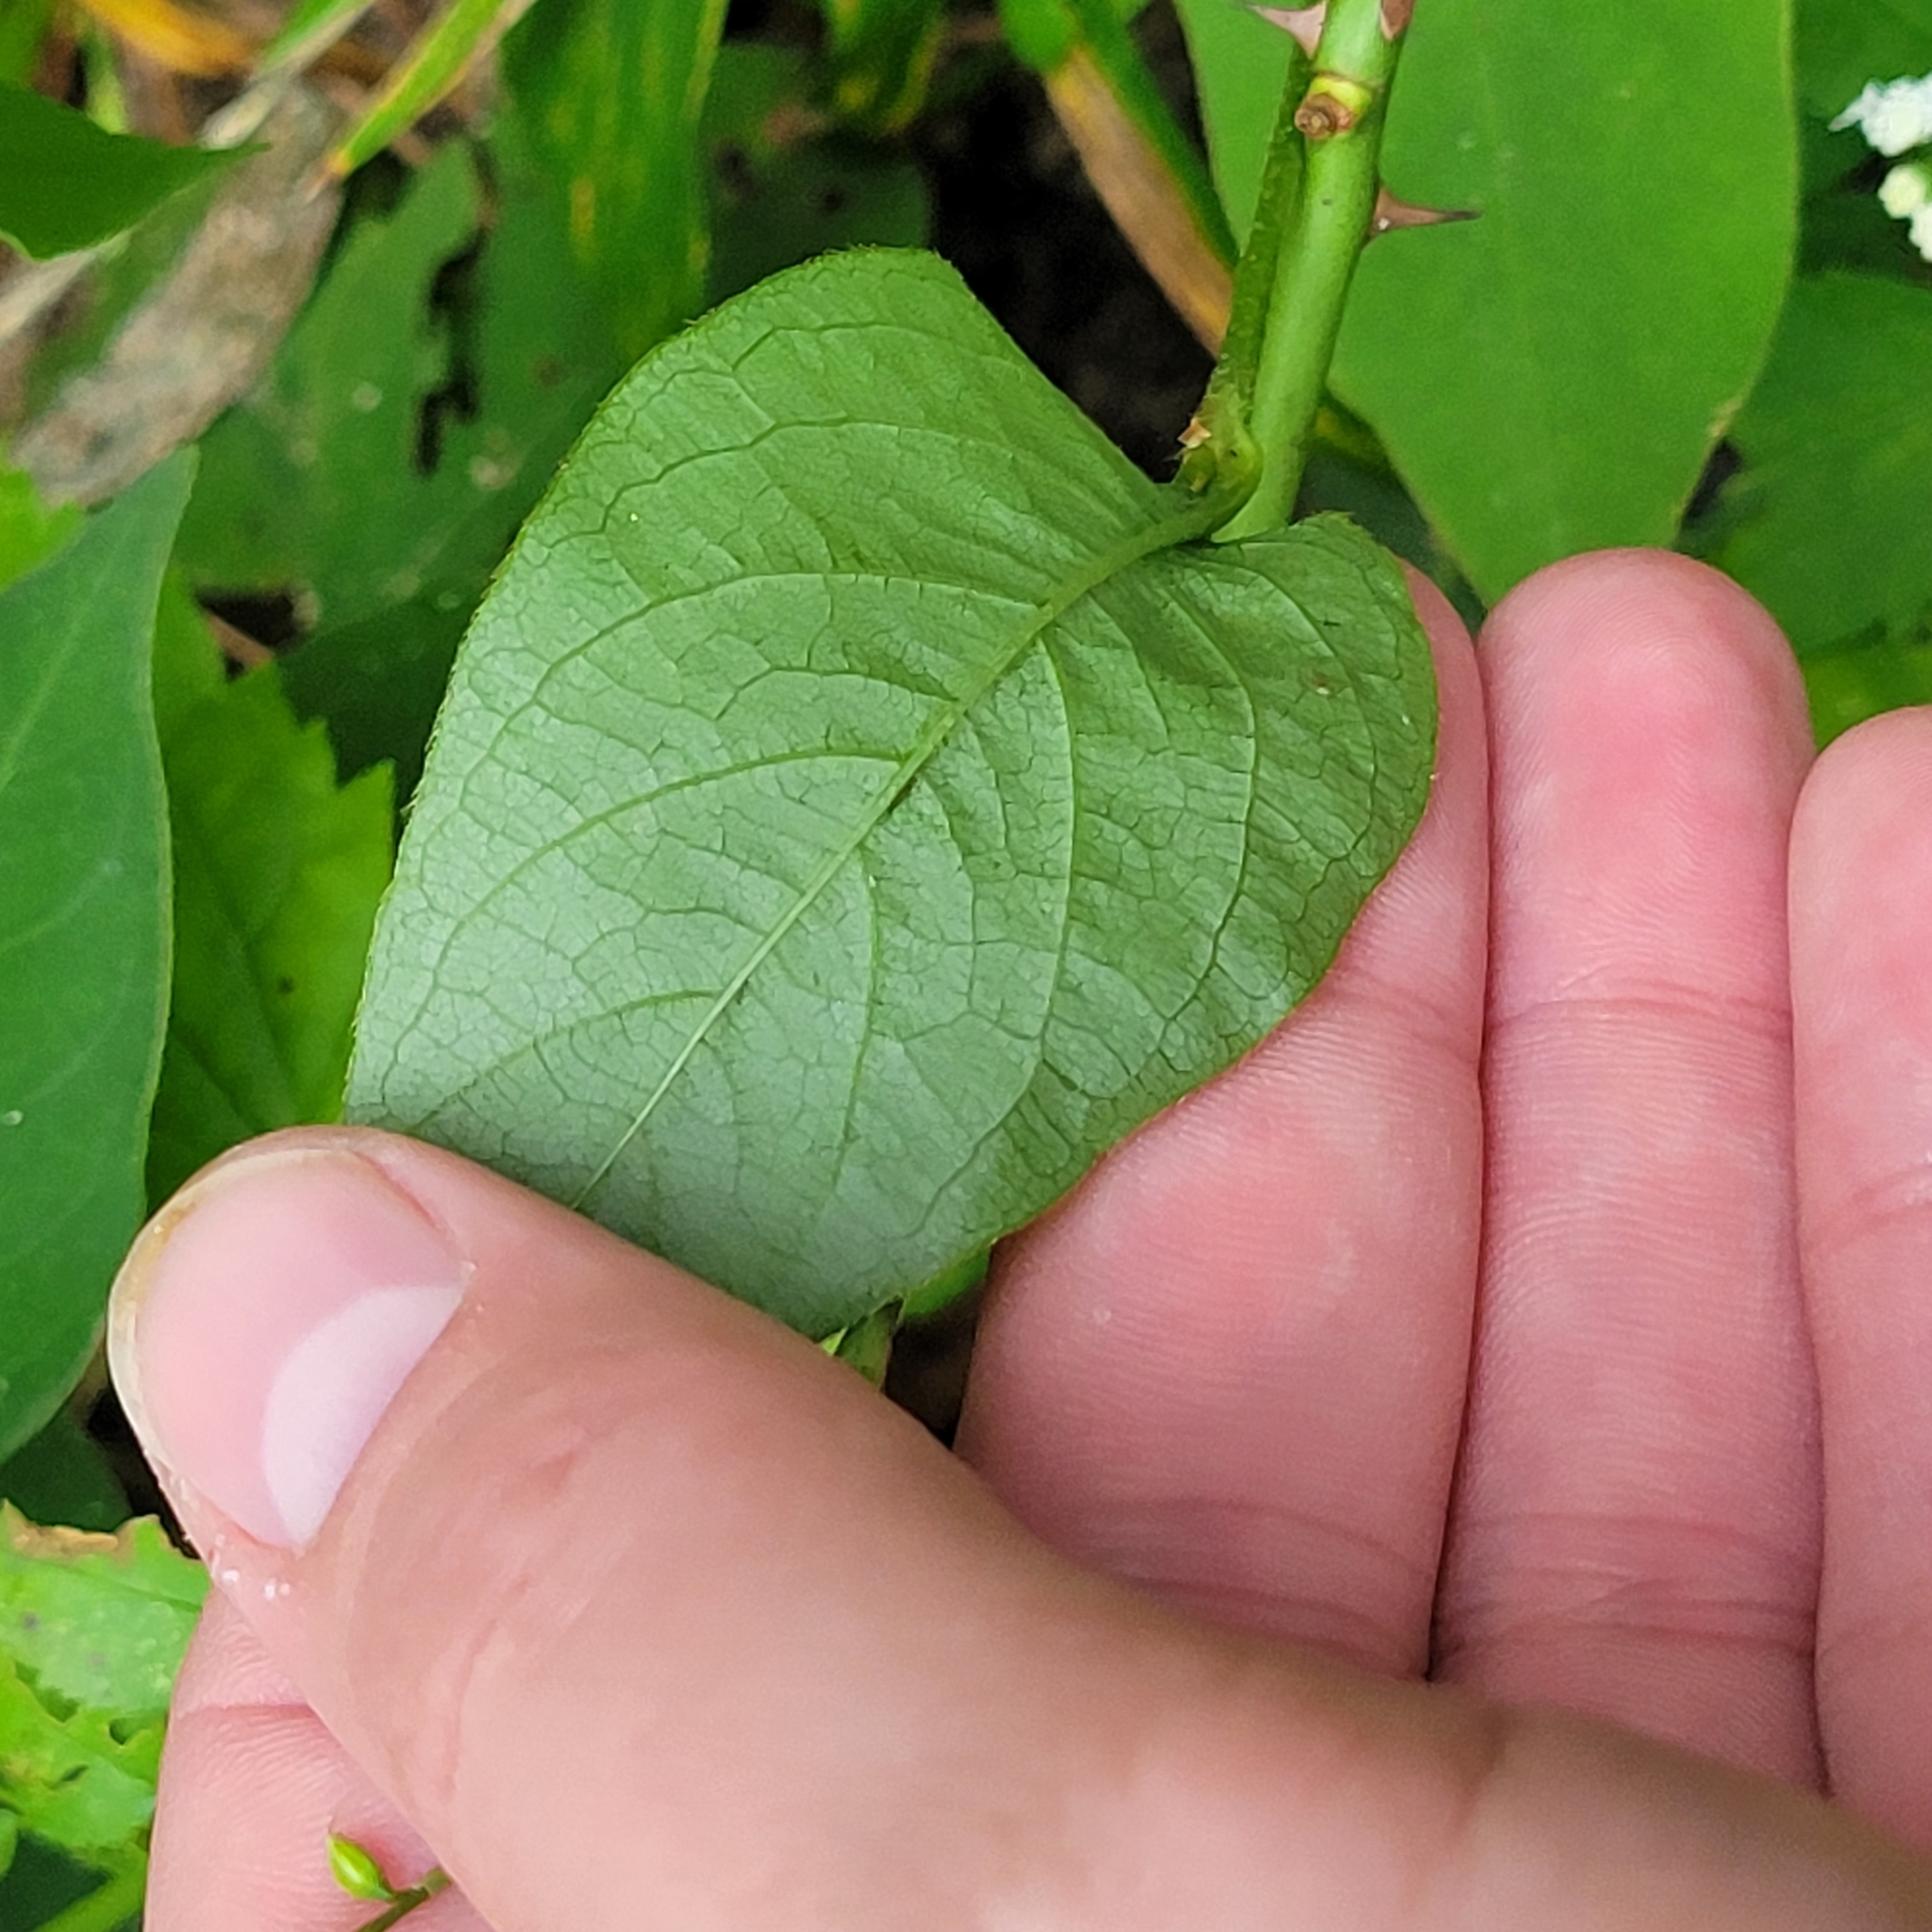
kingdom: Plantae
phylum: Tracheophyta
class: Magnoliopsida
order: Caryophyllales
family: Polygonaceae
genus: Persicaria
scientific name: Persicaria virginiana
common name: Jumpseed
